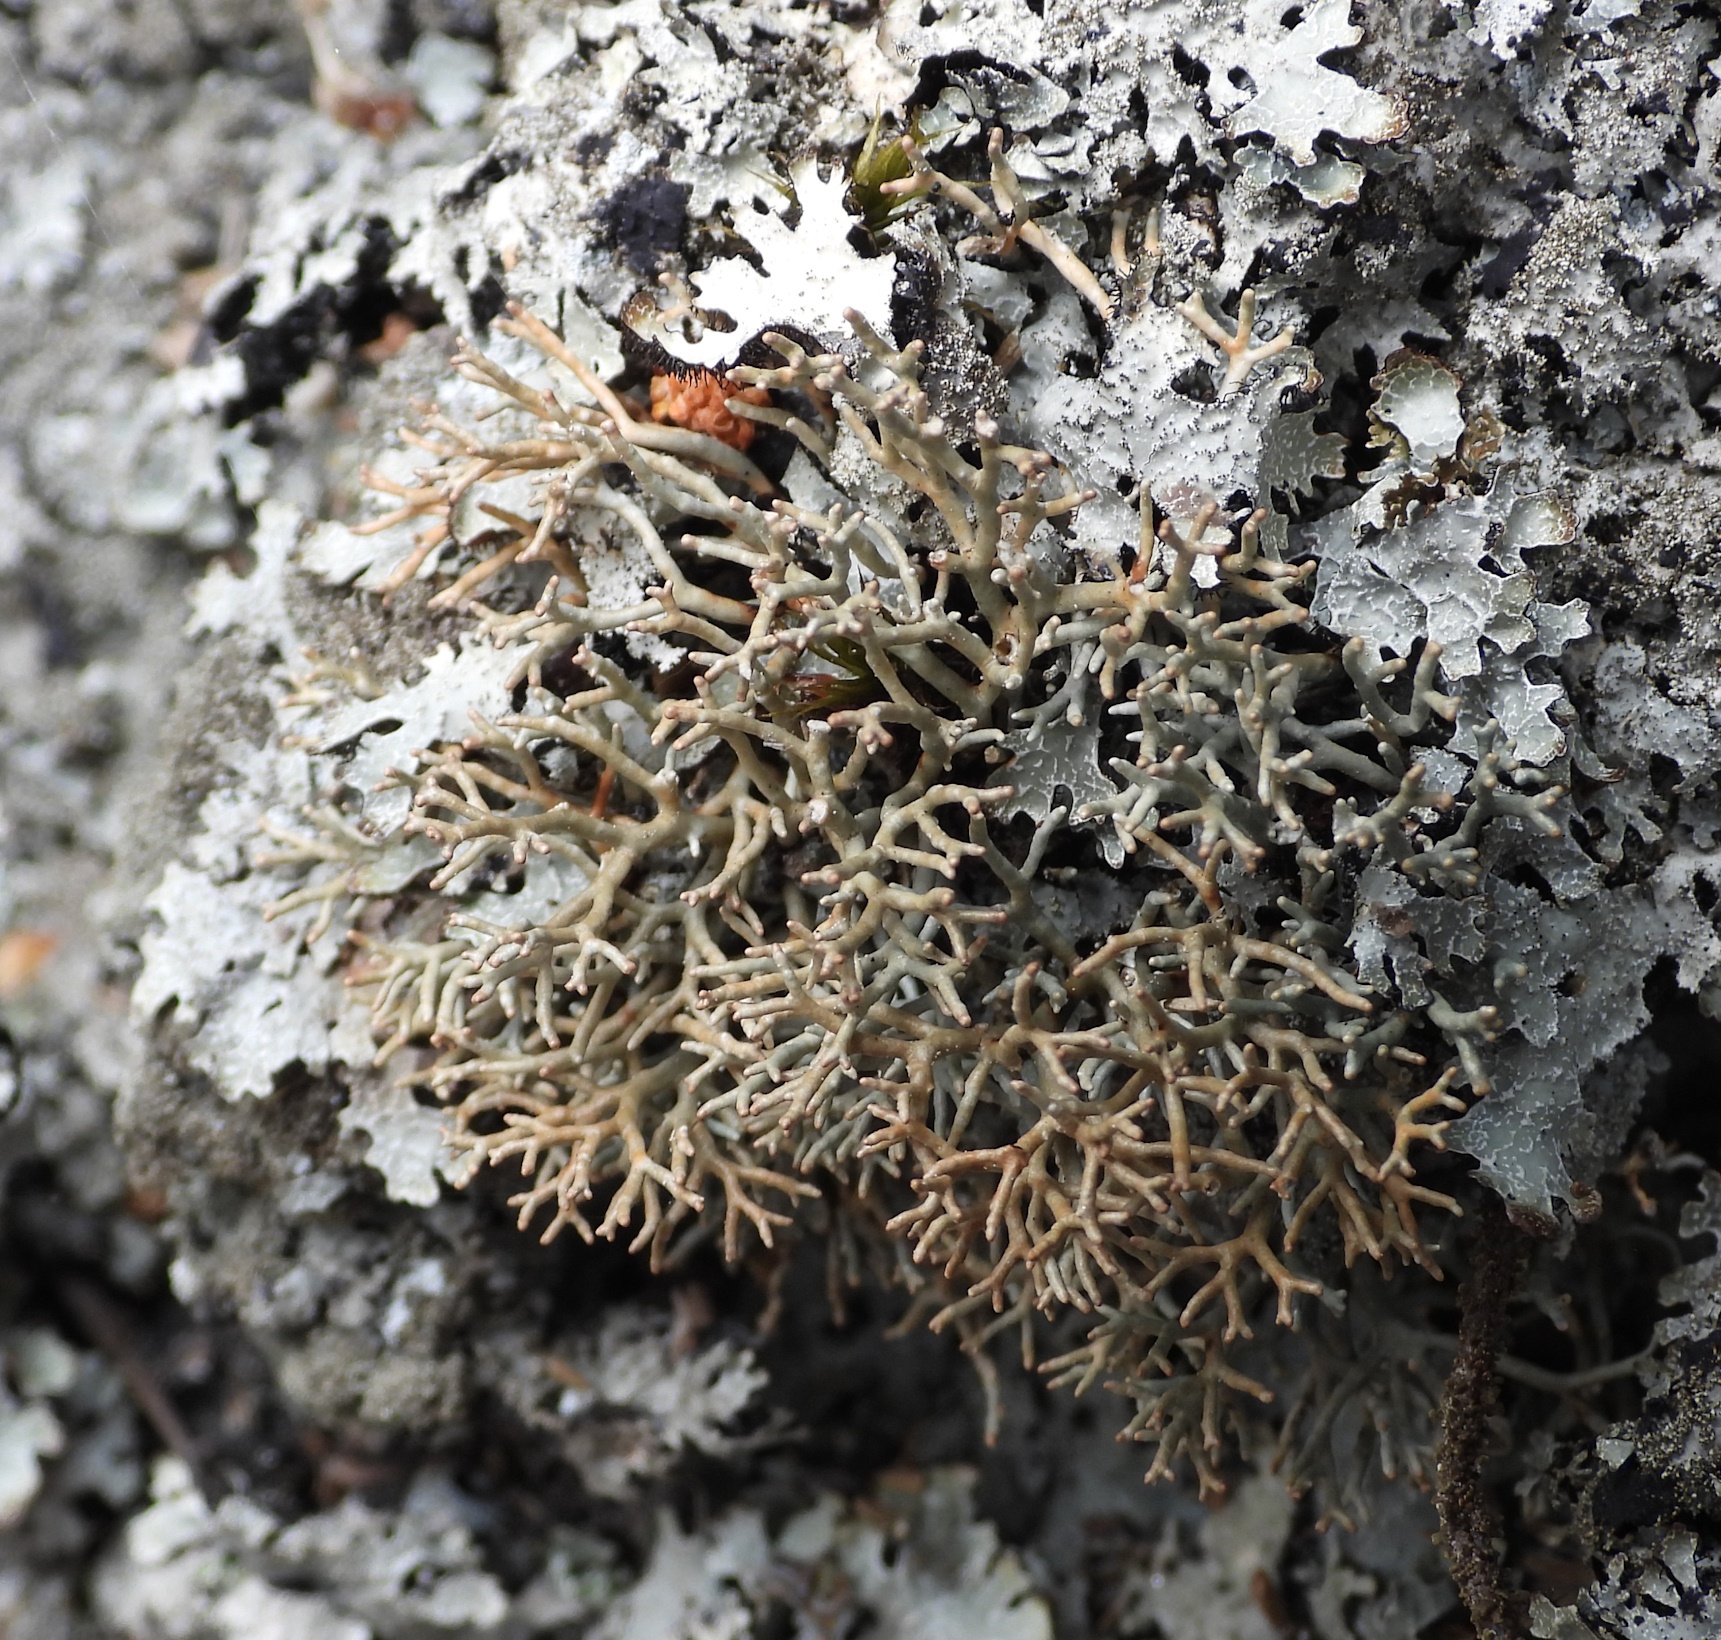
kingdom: Fungi
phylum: Ascomycota
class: Lecanoromycetes
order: Lecanorales
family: Sphaerophoraceae
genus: Sphaerophorus
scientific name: Sphaerophorus fragilis
